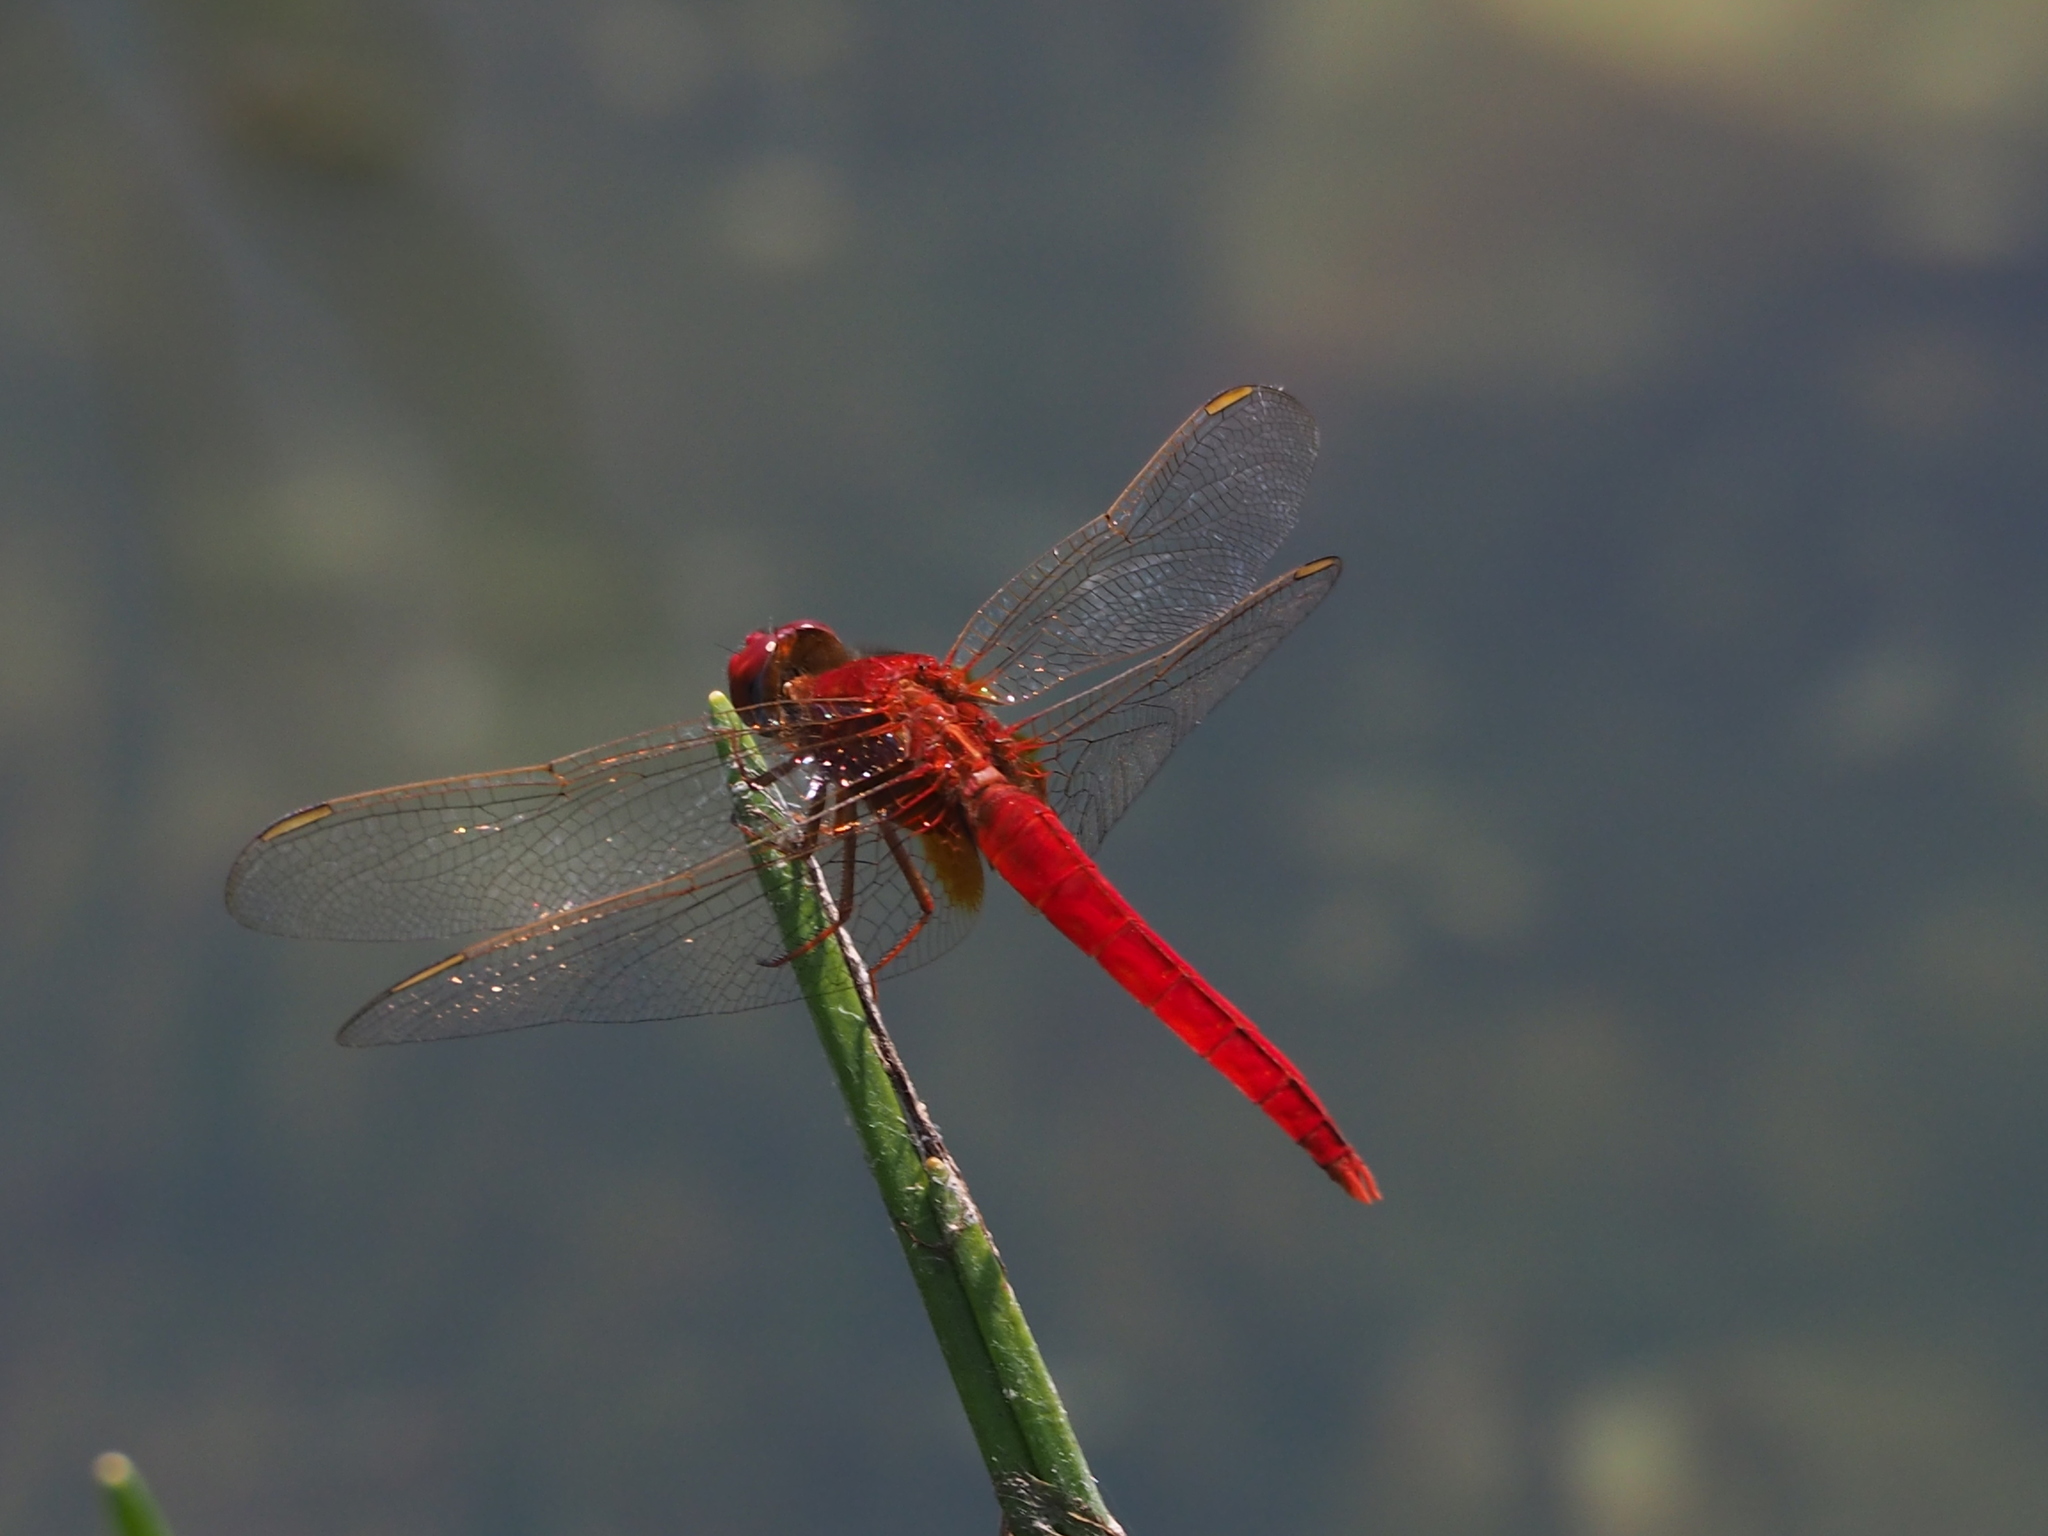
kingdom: Animalia
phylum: Arthropoda
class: Insecta
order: Odonata
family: Libellulidae
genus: Crocothemis
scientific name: Crocothemis servilia
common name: Scarlet skimmer
